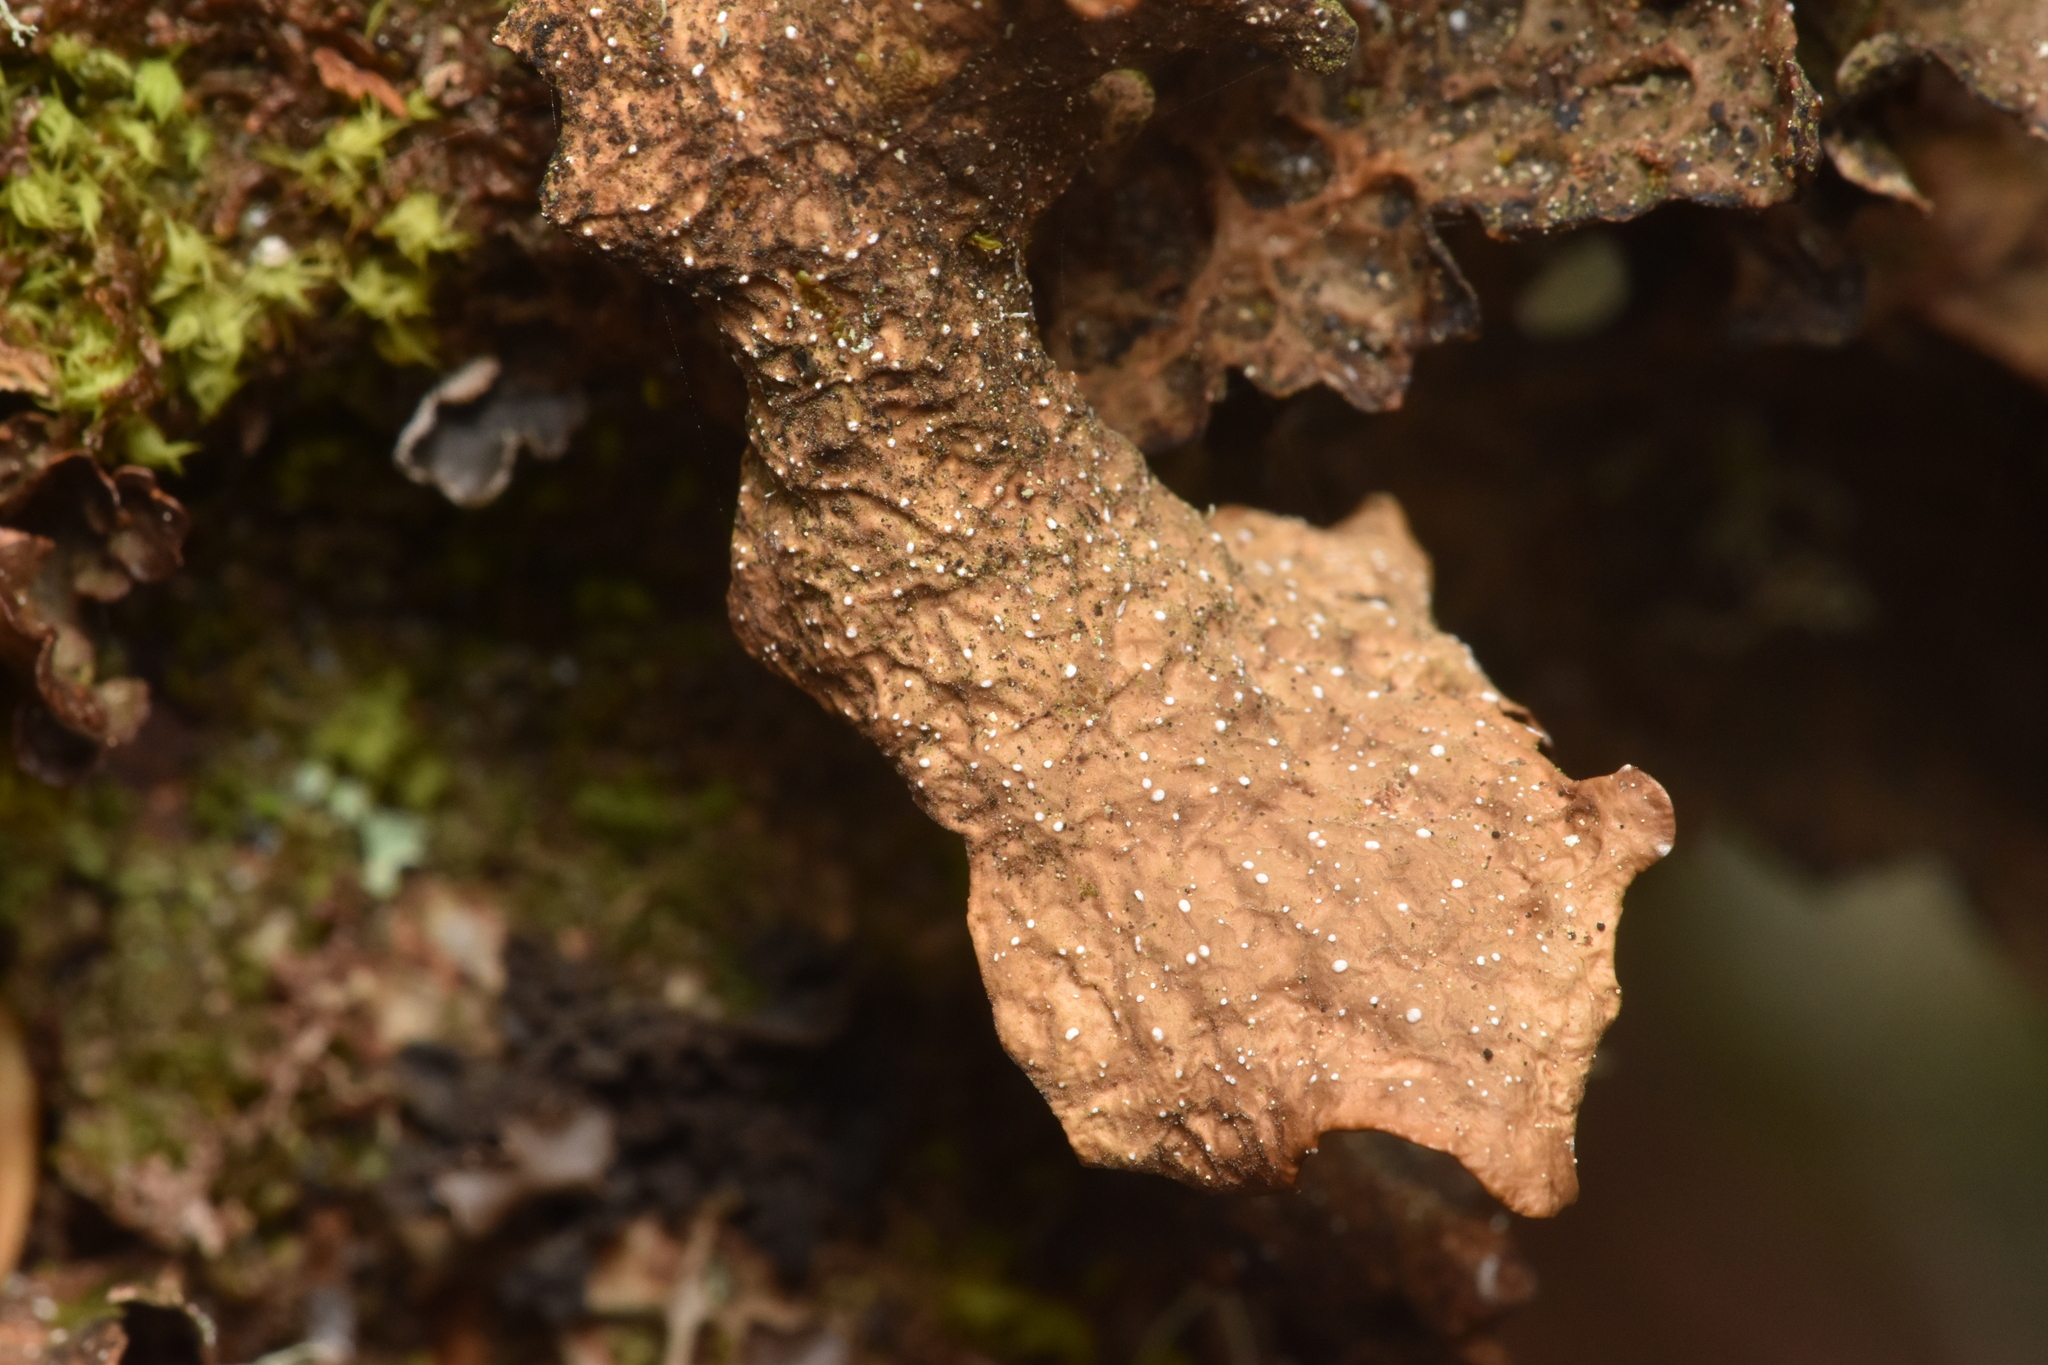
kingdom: Fungi
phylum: Ascomycota
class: Lecanoromycetes
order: Peltigerales
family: Lobariaceae
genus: Lobaria
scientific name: Lobaria anthraspis
